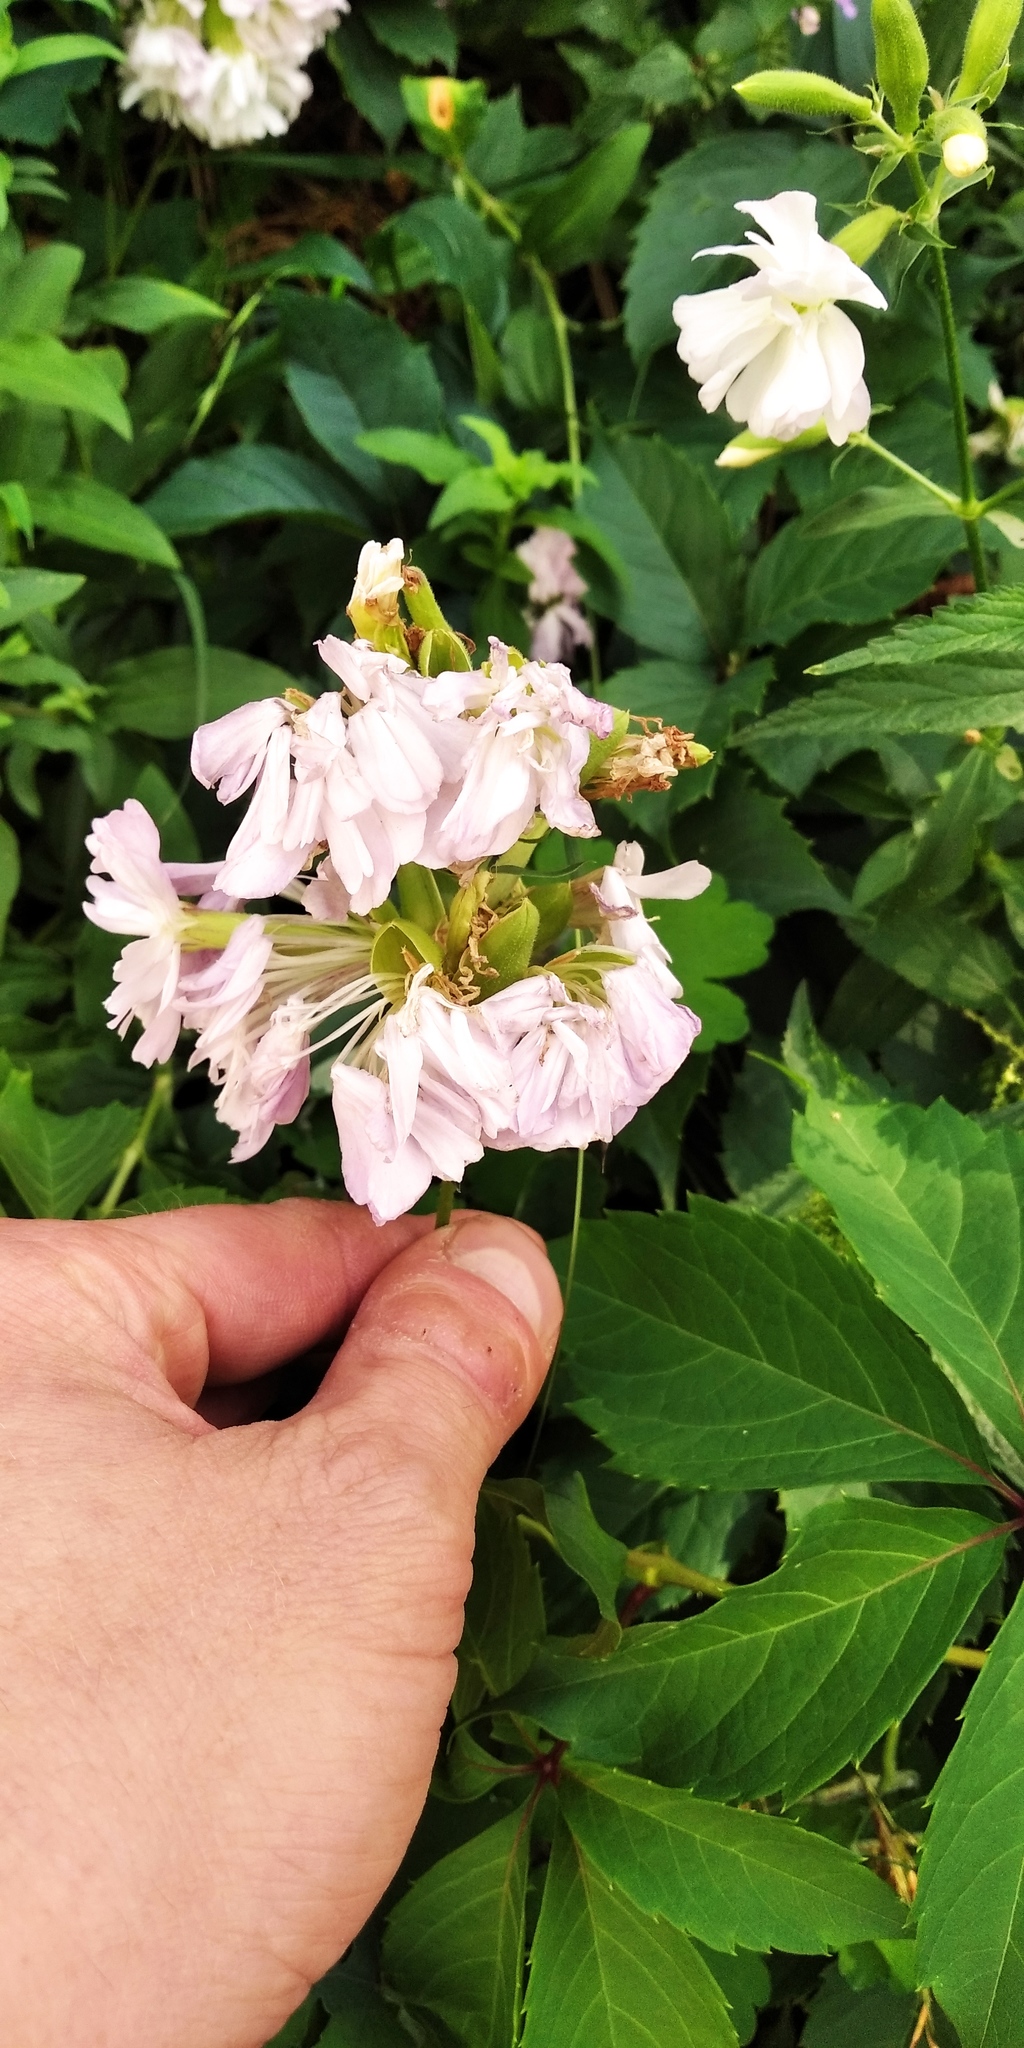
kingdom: Plantae
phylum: Tracheophyta
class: Magnoliopsida
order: Caryophyllales
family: Caryophyllaceae
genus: Saponaria
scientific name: Saponaria officinalis
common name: Soapwort
